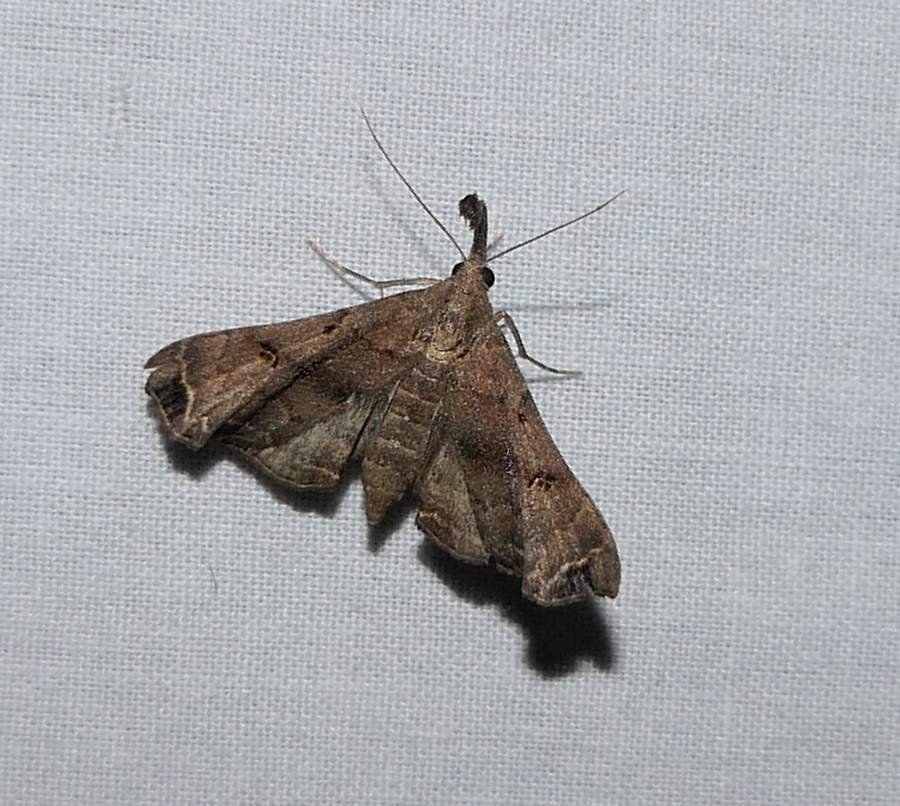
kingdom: Animalia
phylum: Arthropoda
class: Insecta
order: Lepidoptera
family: Erebidae
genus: Palthis
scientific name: Palthis asopialis
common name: Faint-spotted palthis moth
